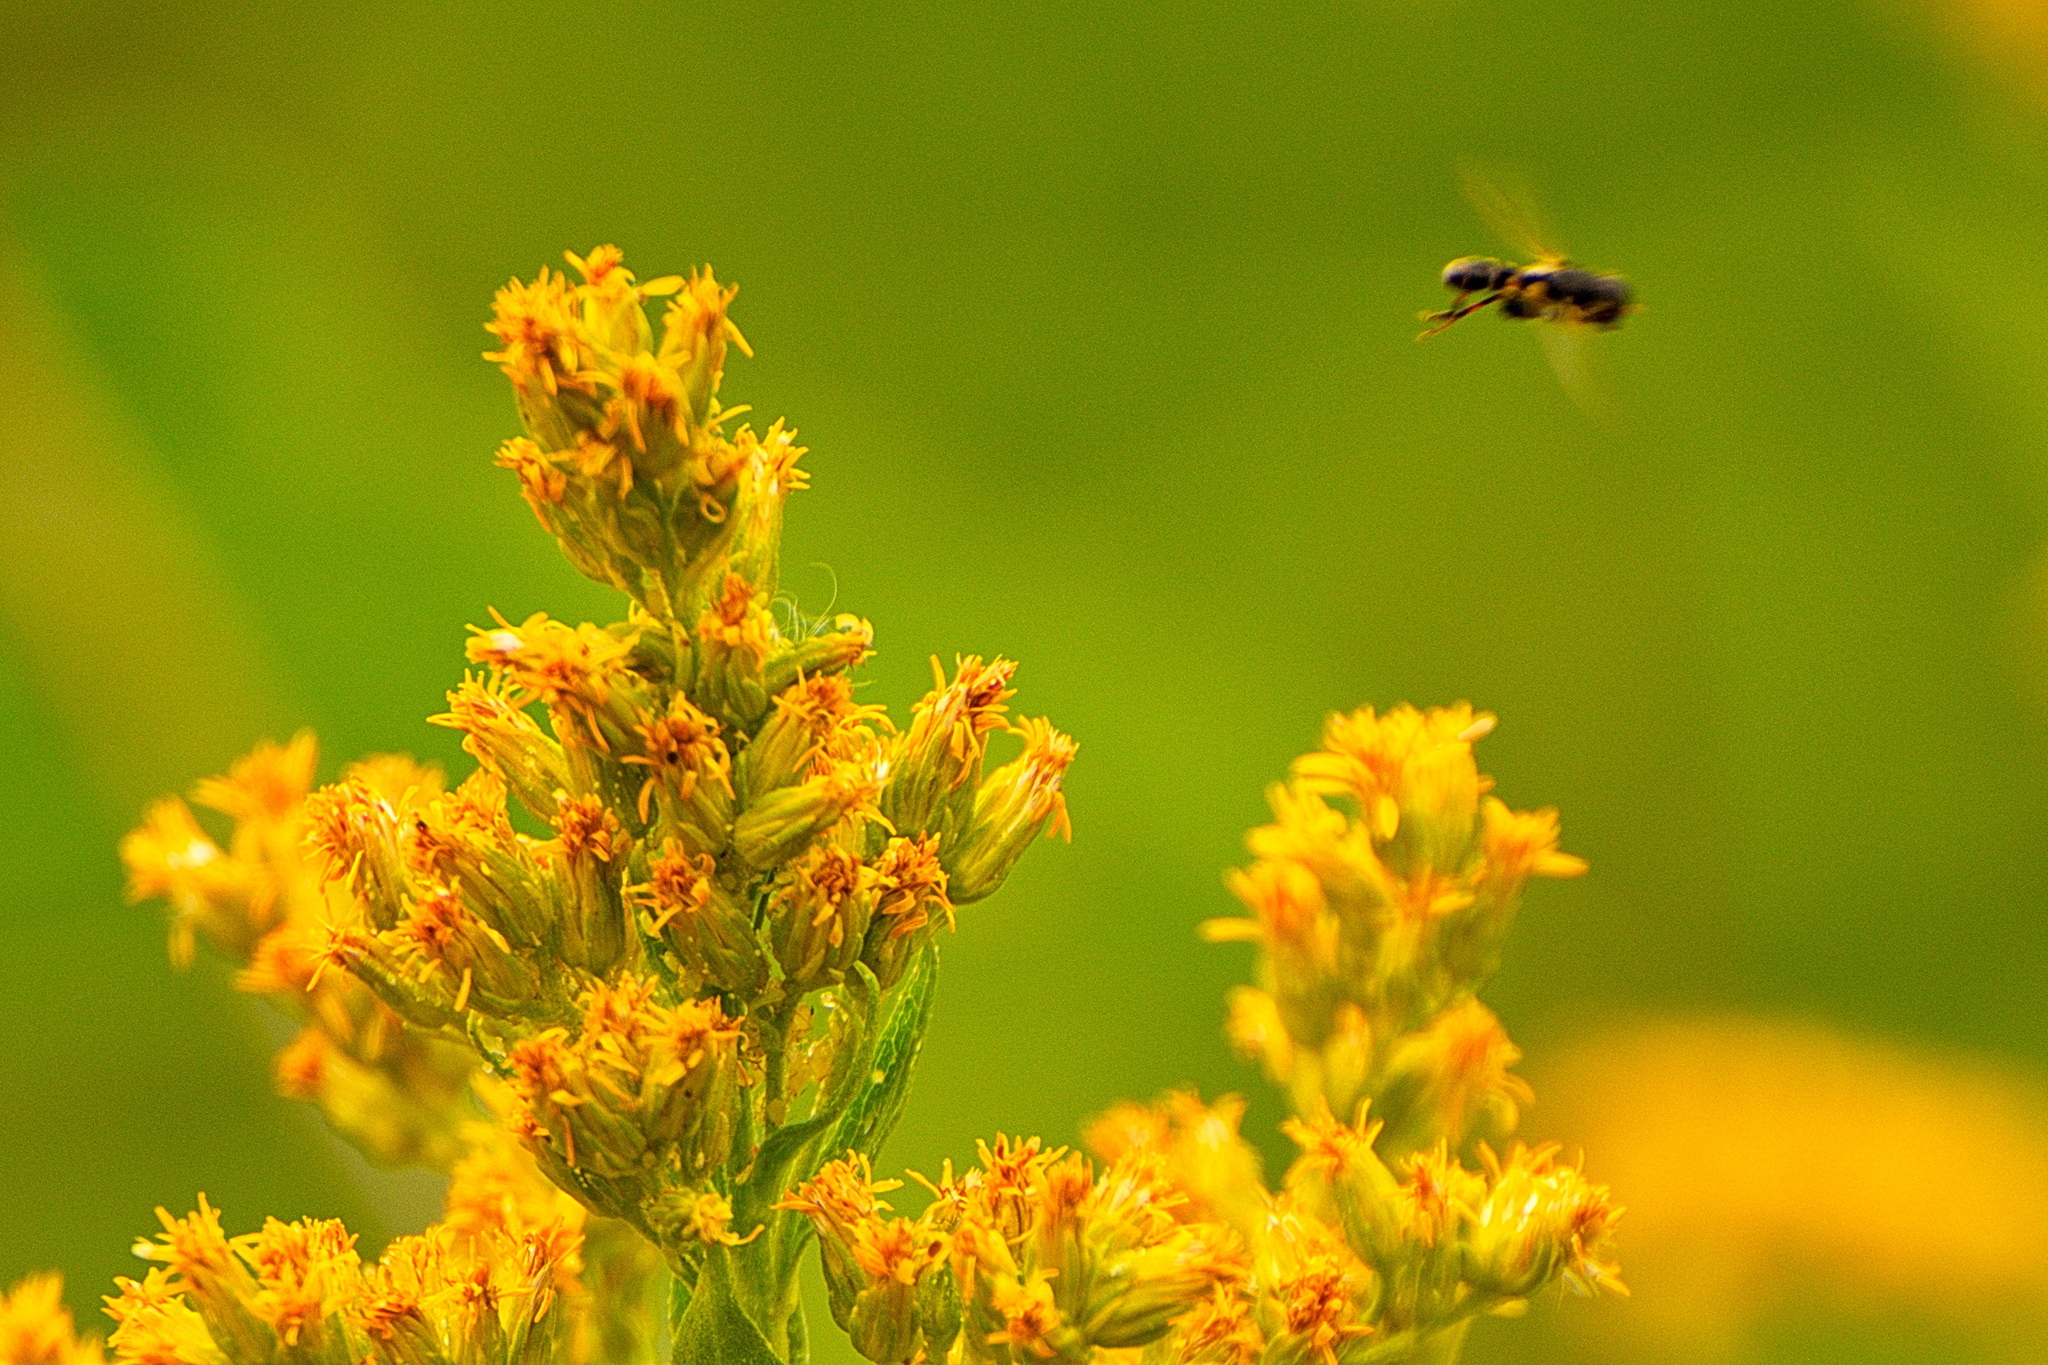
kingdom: Animalia
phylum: Arthropoda
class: Insecta
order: Diptera
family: Syrphidae
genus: Syritta
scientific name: Syritta pipiens
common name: Hover fly
